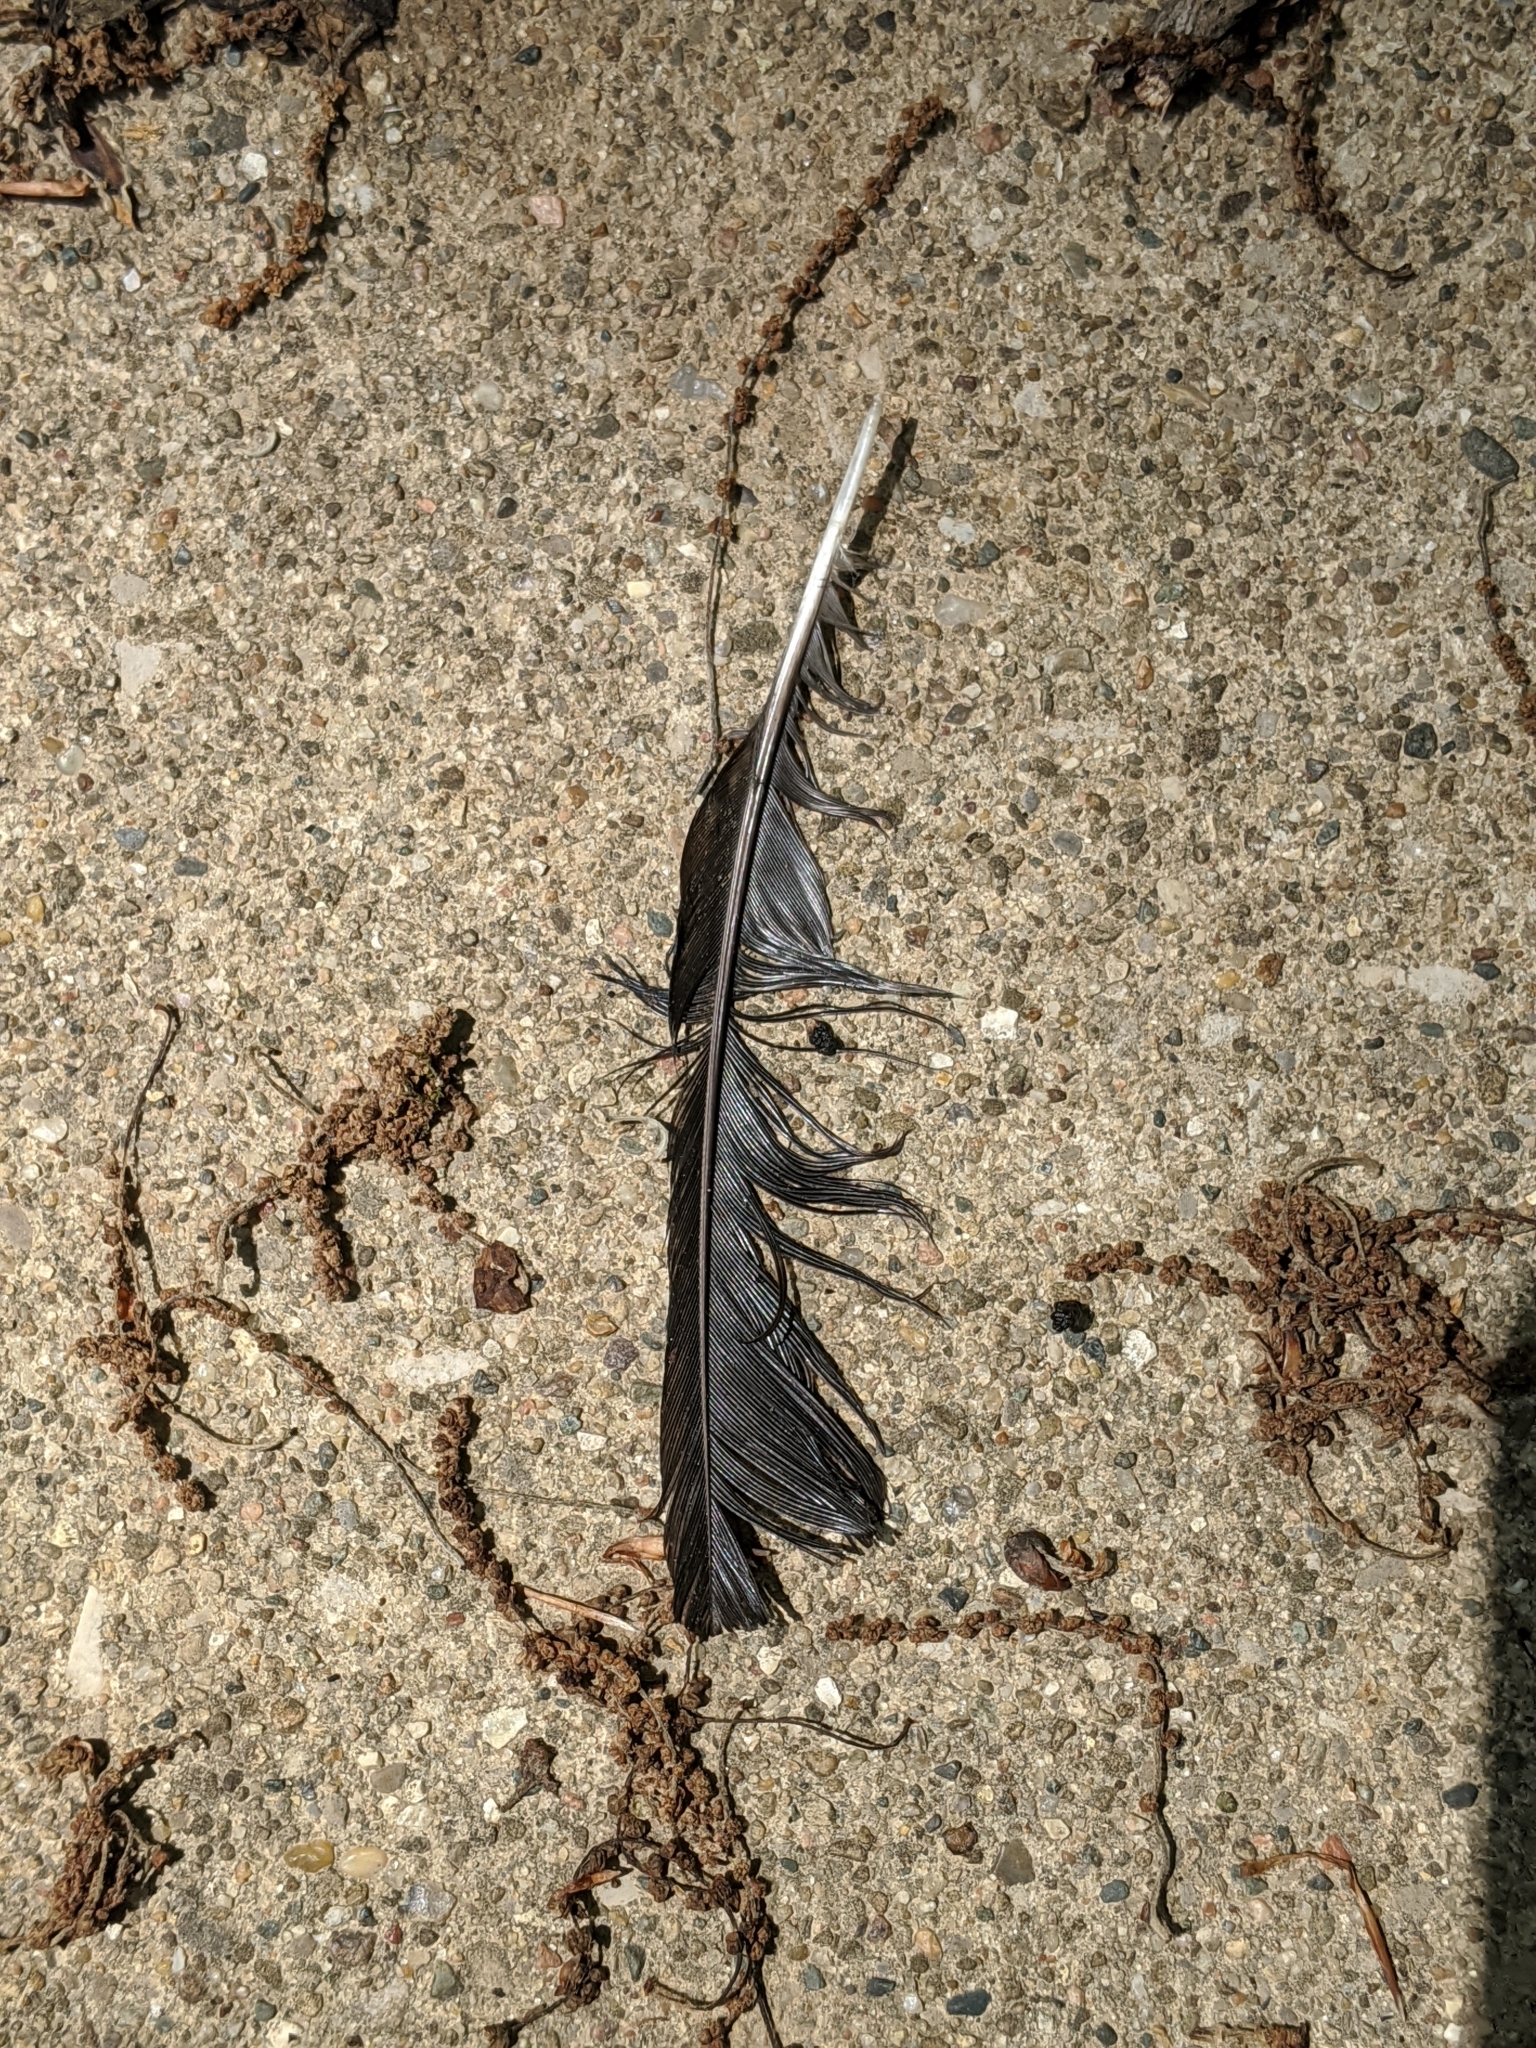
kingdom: Animalia
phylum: Chordata
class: Aves
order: Piciformes
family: Picidae
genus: Melanerpes
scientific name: Melanerpes erythrocephalus
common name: Red-headed woodpecker
